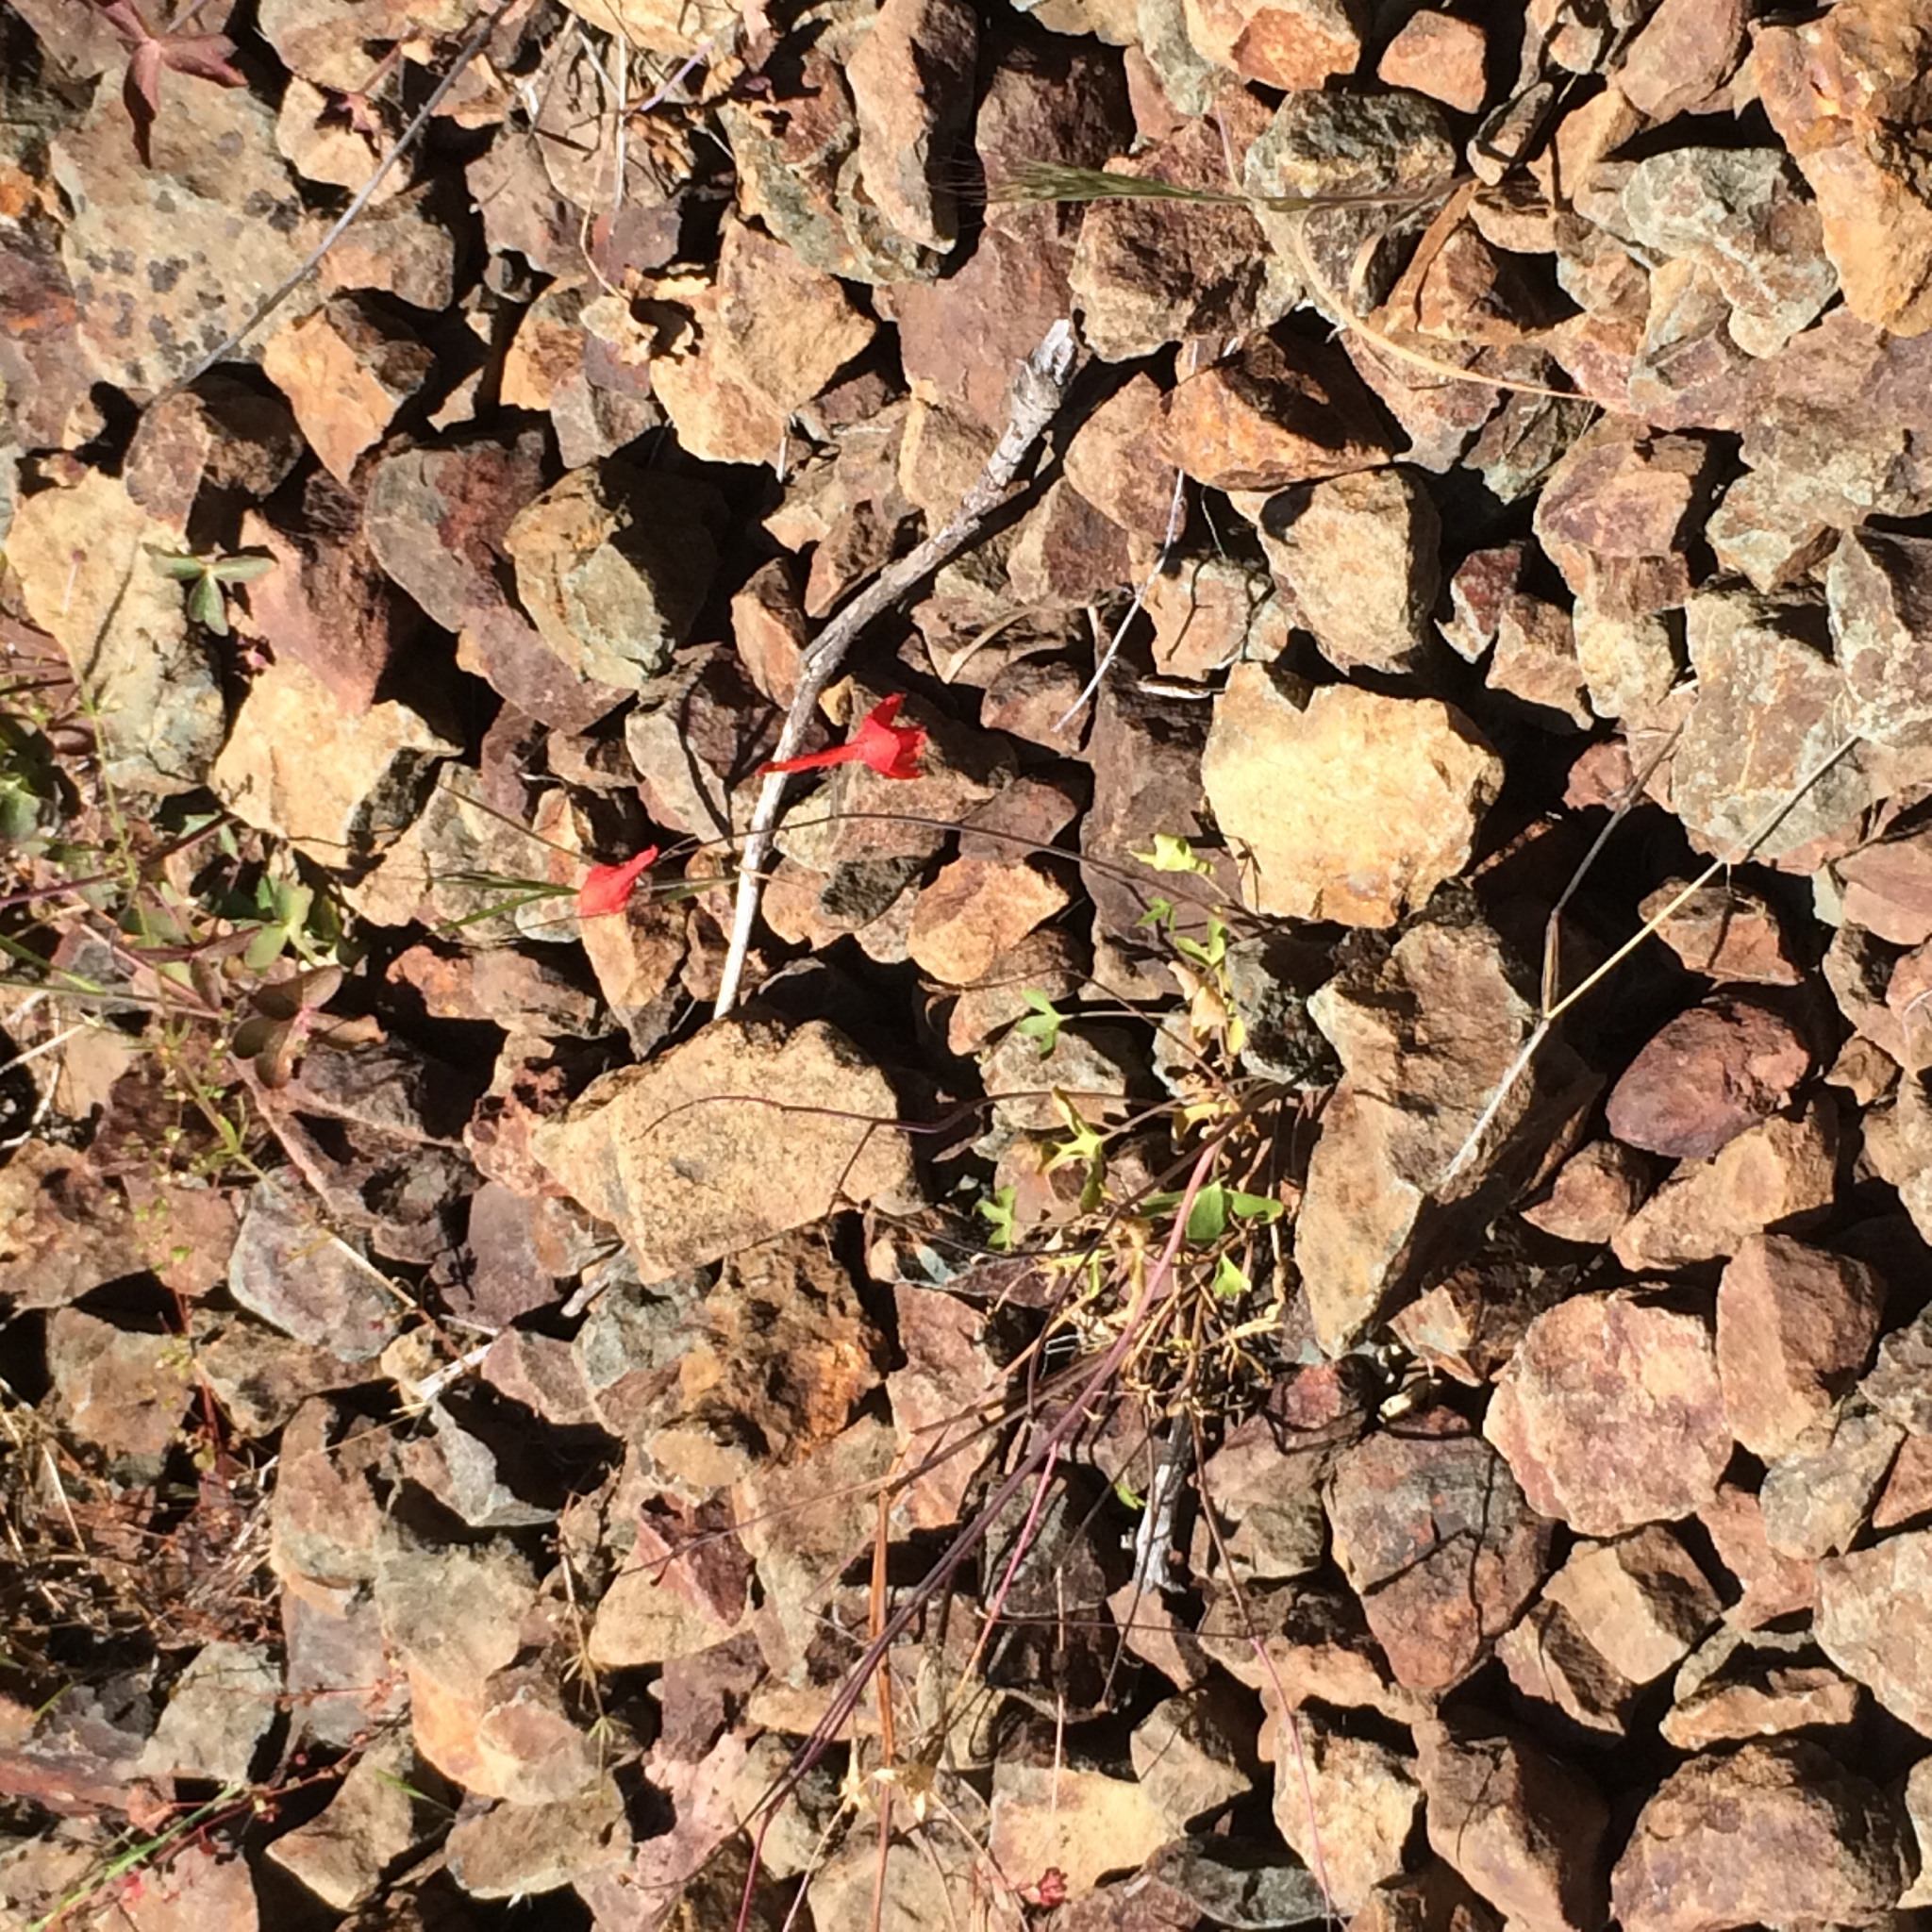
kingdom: Plantae
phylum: Tracheophyta
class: Magnoliopsida
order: Ranunculales
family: Ranunculaceae
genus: Delphinium
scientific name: Delphinium nudicaule
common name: Red larkspur
